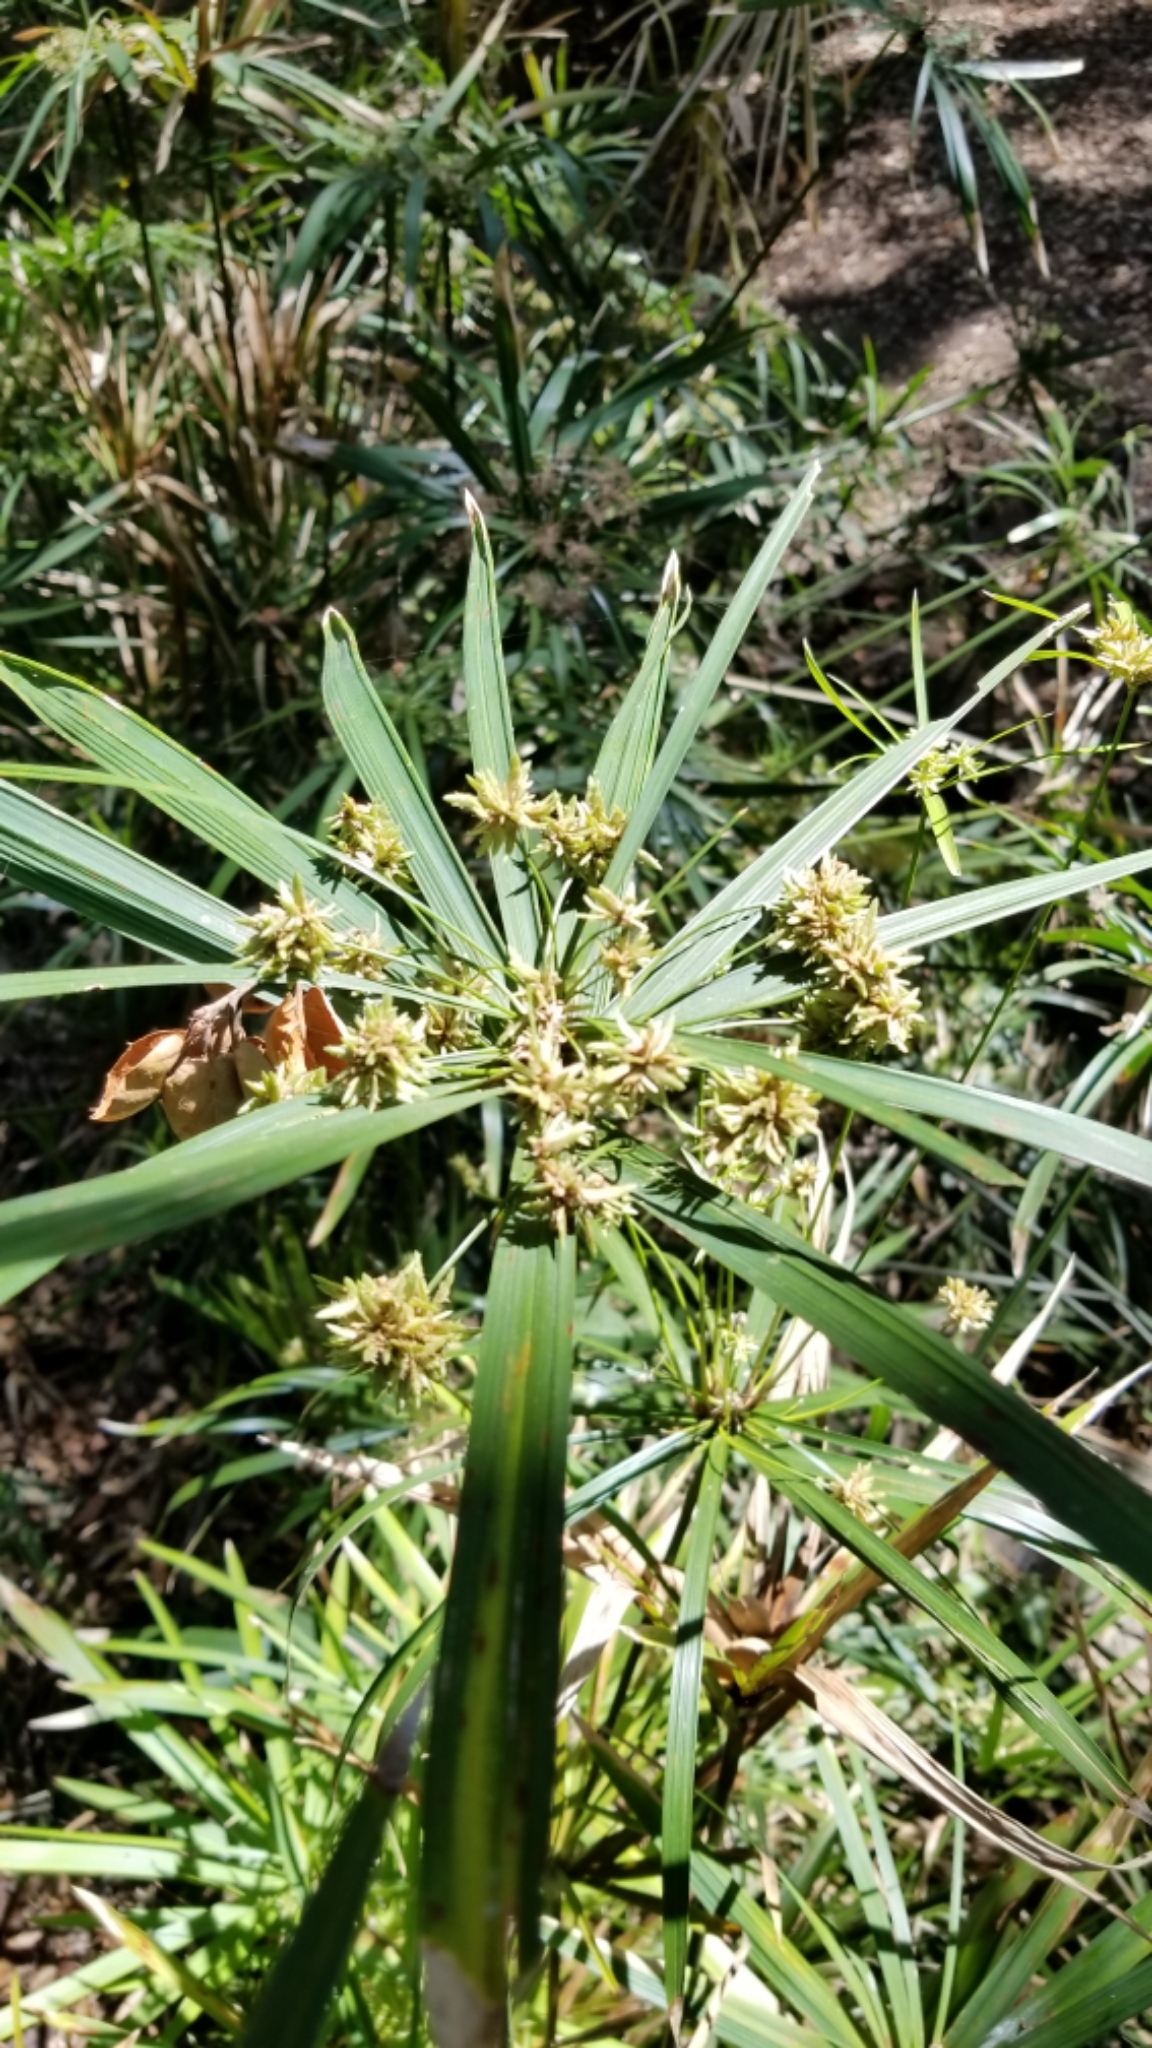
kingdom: Plantae
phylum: Tracheophyta
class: Liliopsida
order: Poales
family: Cyperaceae
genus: Cyperus
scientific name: Cyperus alternifolius
